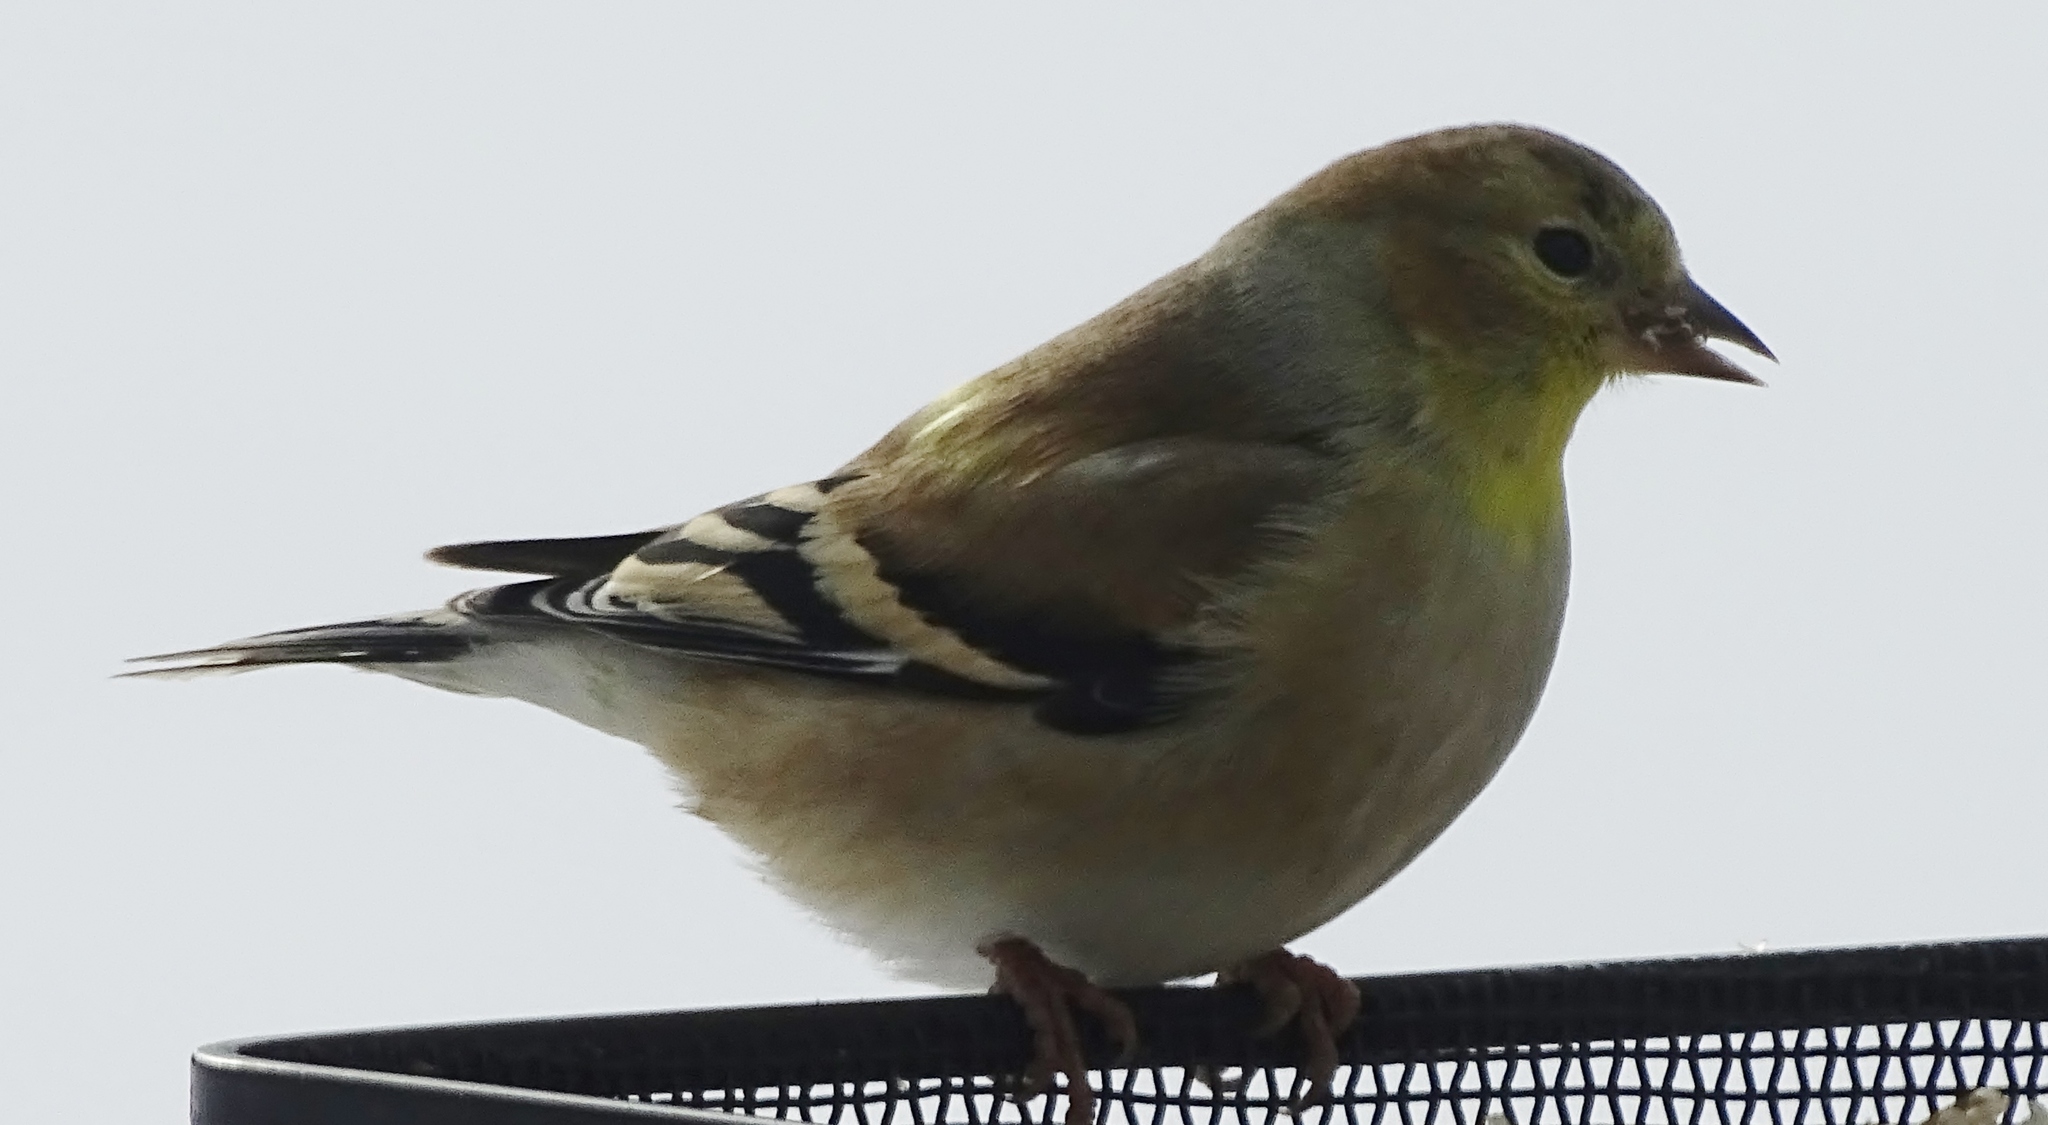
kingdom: Animalia
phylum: Chordata
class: Aves
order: Passeriformes
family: Fringillidae
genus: Spinus
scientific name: Spinus tristis
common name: American goldfinch
